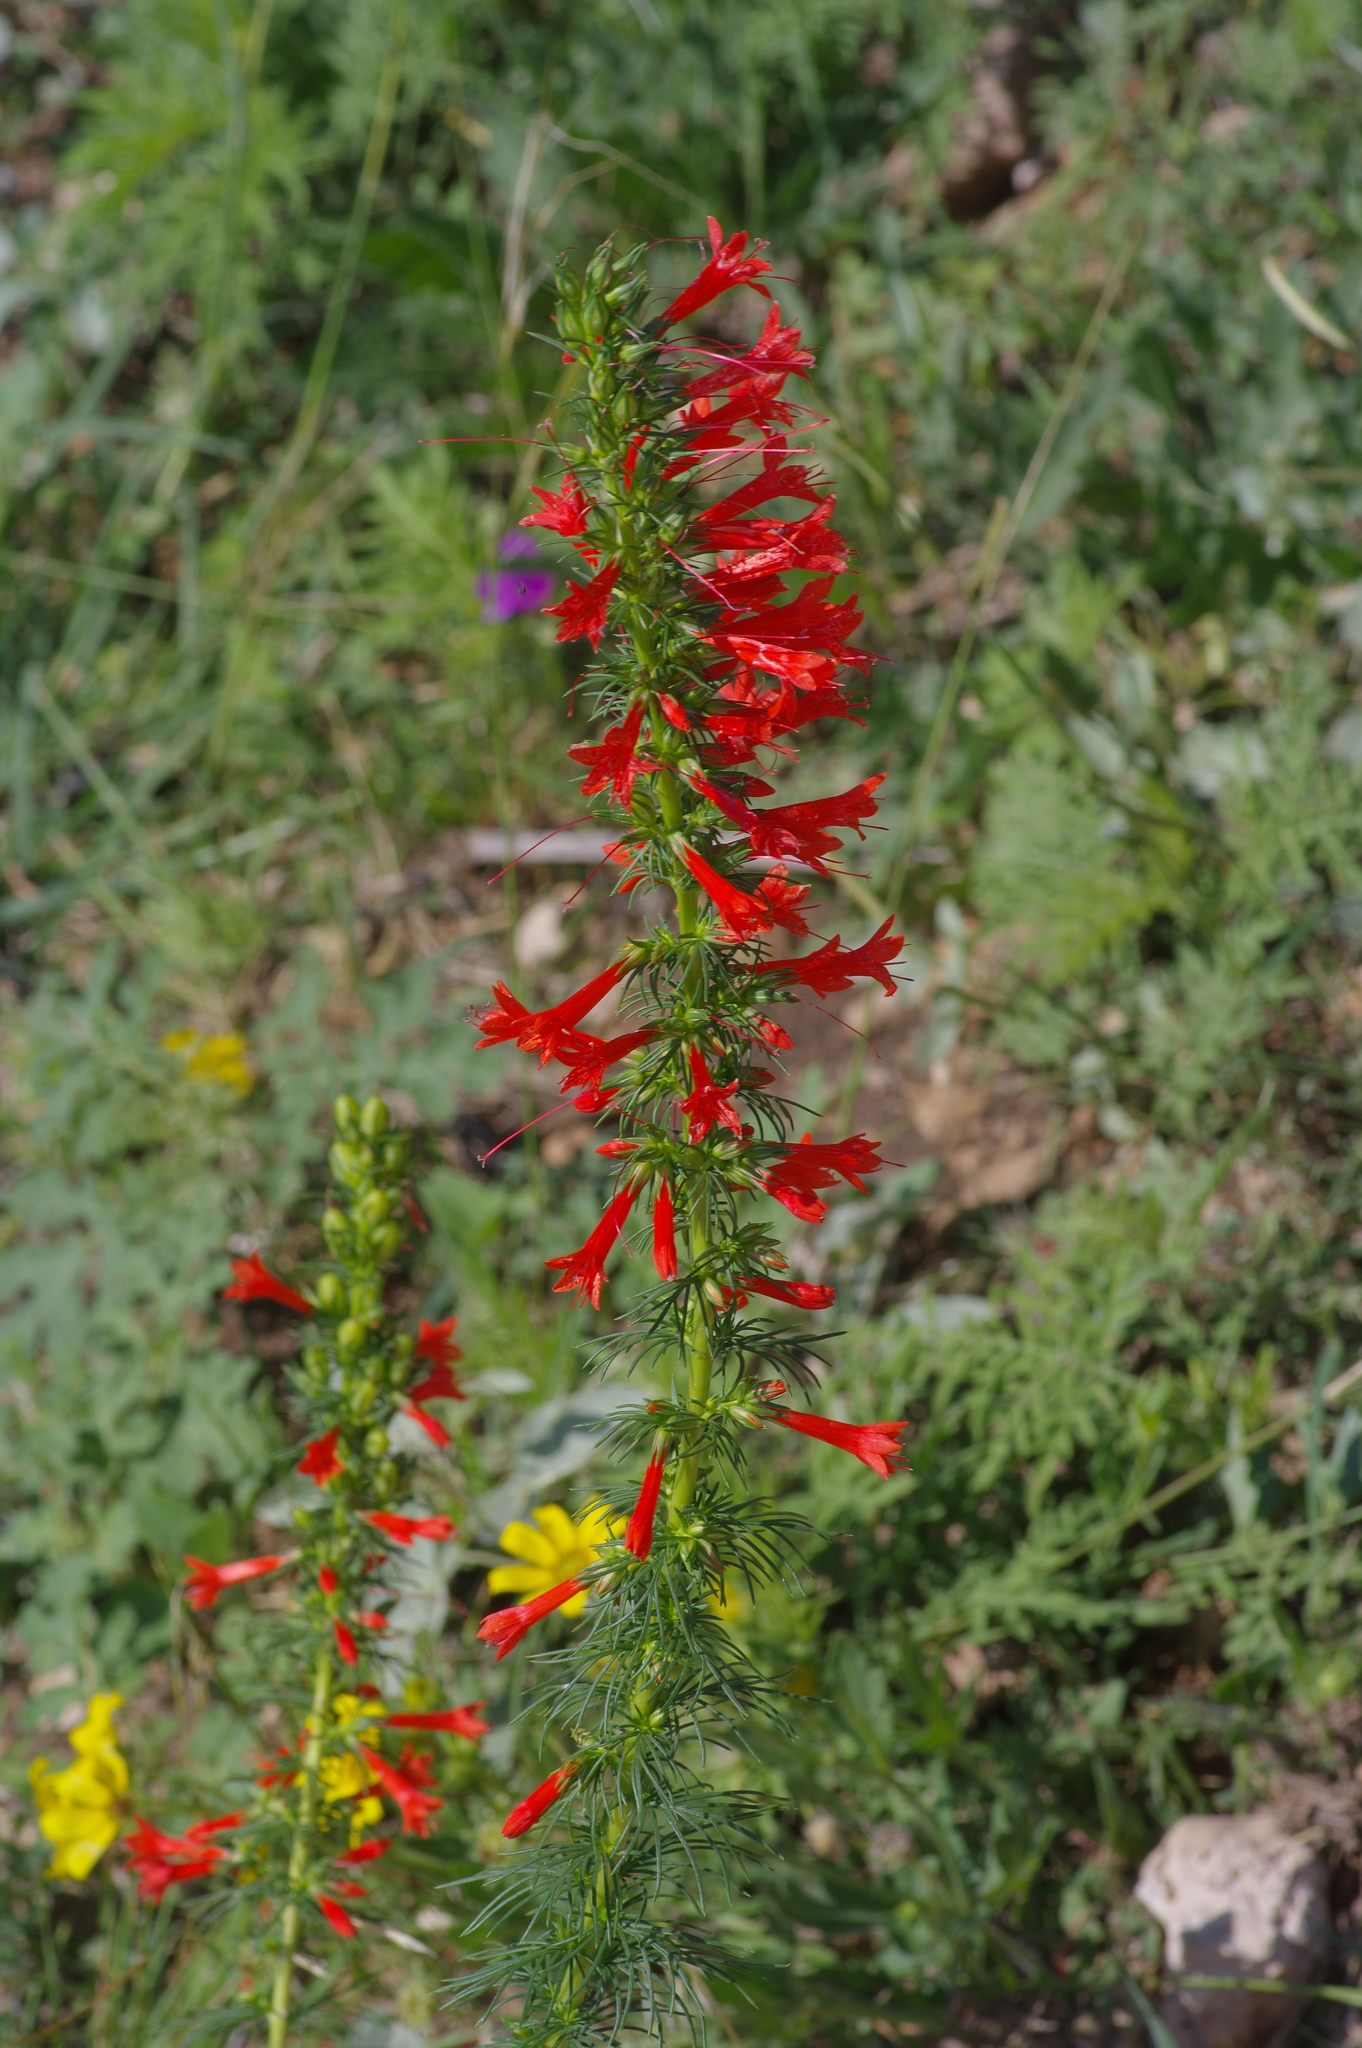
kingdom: Plantae
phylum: Tracheophyta
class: Magnoliopsida
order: Ericales
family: Polemoniaceae
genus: Ipomopsis
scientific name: Ipomopsis rubra
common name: Skyrocket
